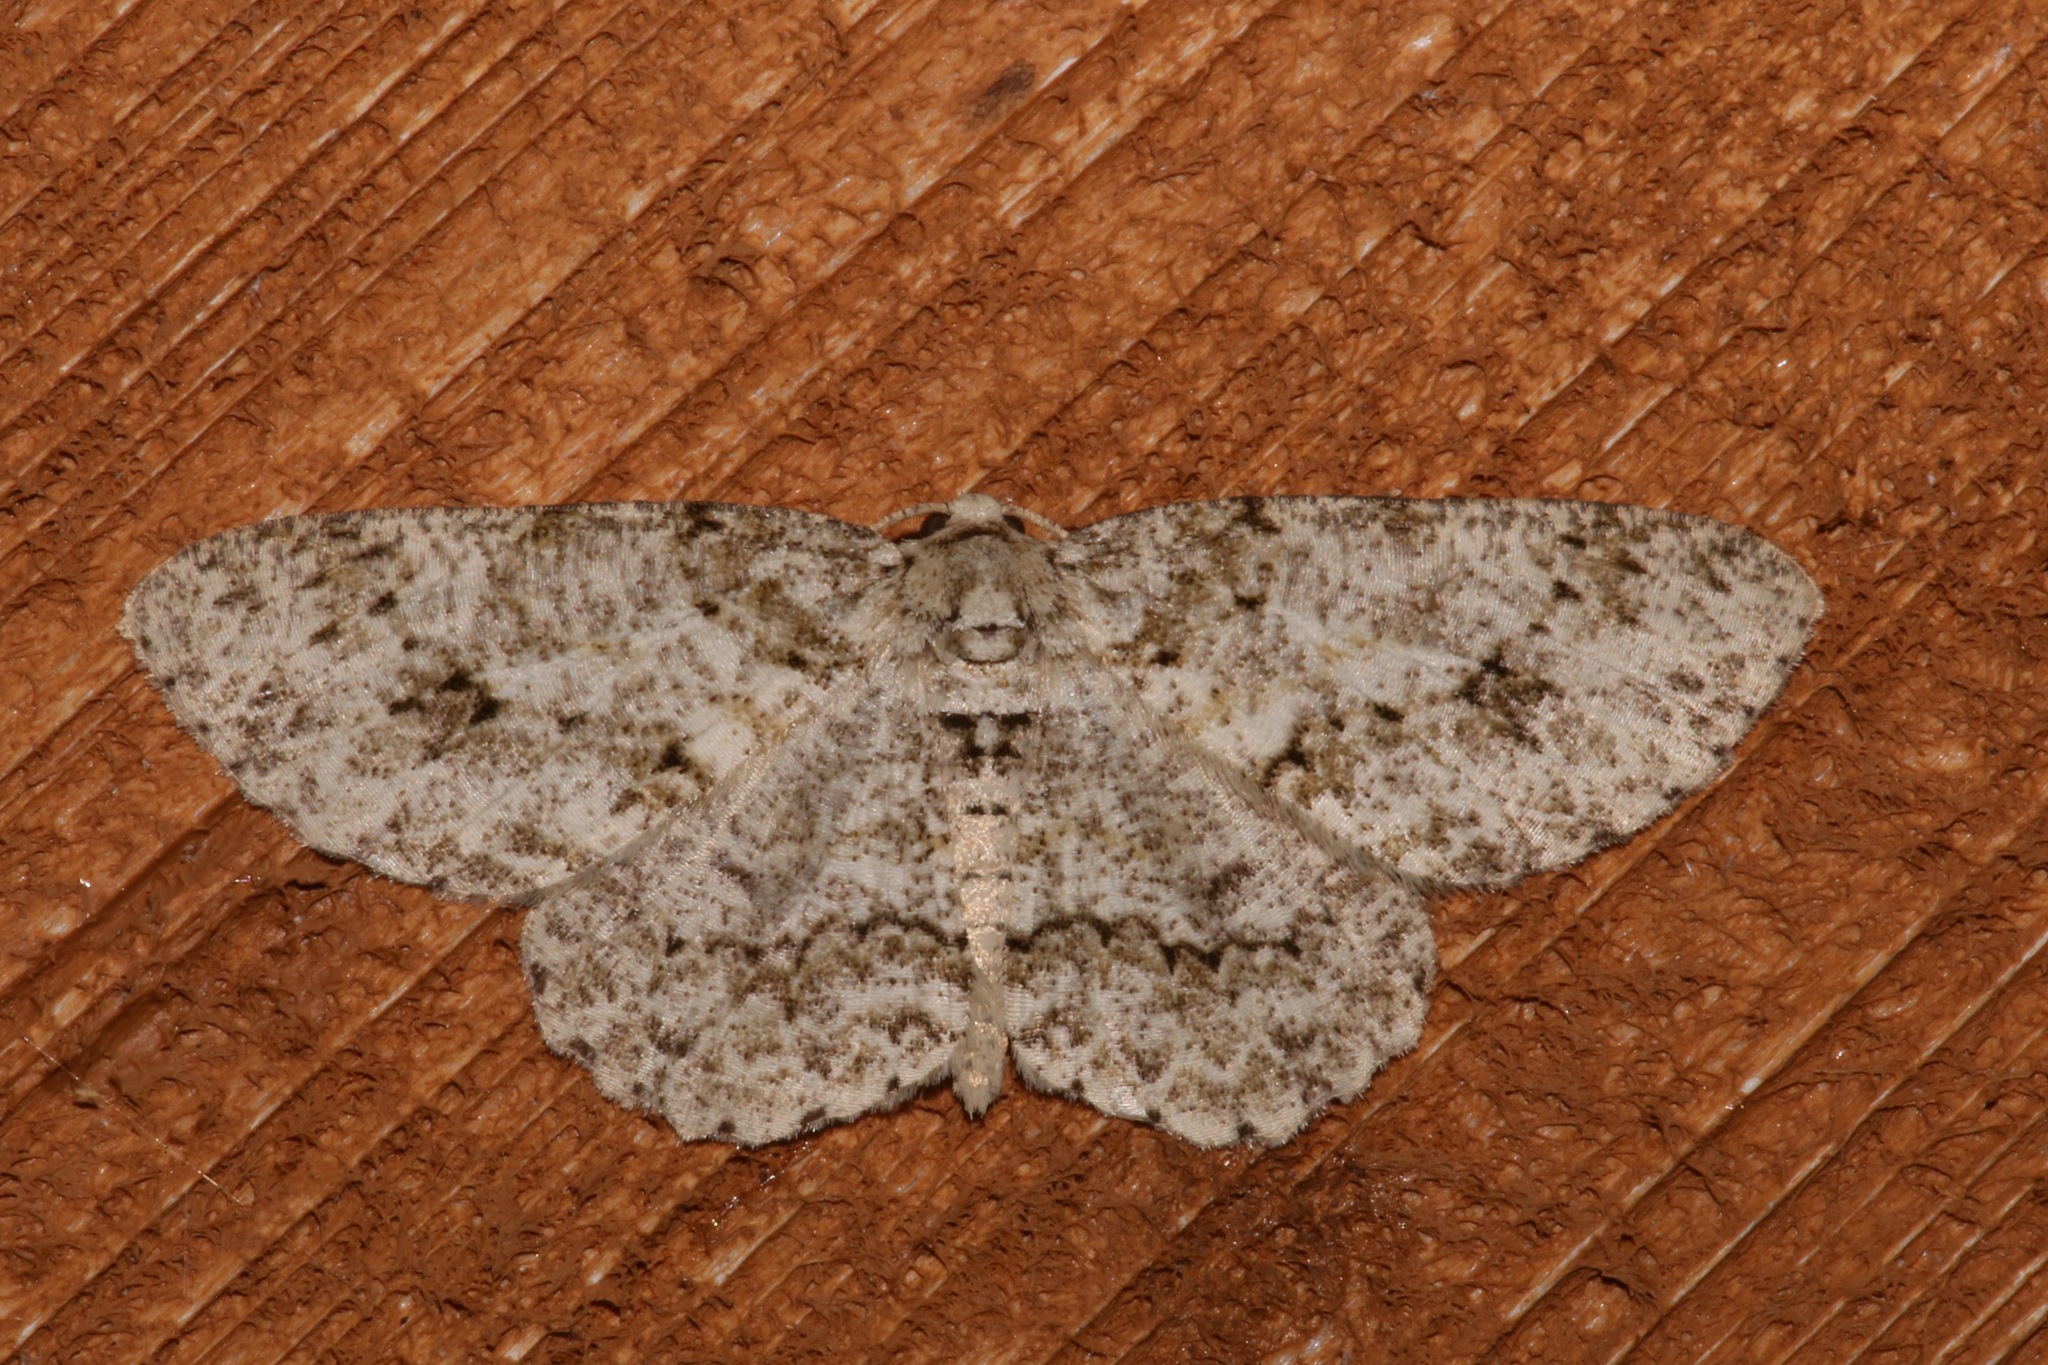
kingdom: Animalia
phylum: Arthropoda
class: Insecta
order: Lepidoptera
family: Geometridae
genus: Ectropis
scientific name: Ectropis crepuscularia
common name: Engrailed
